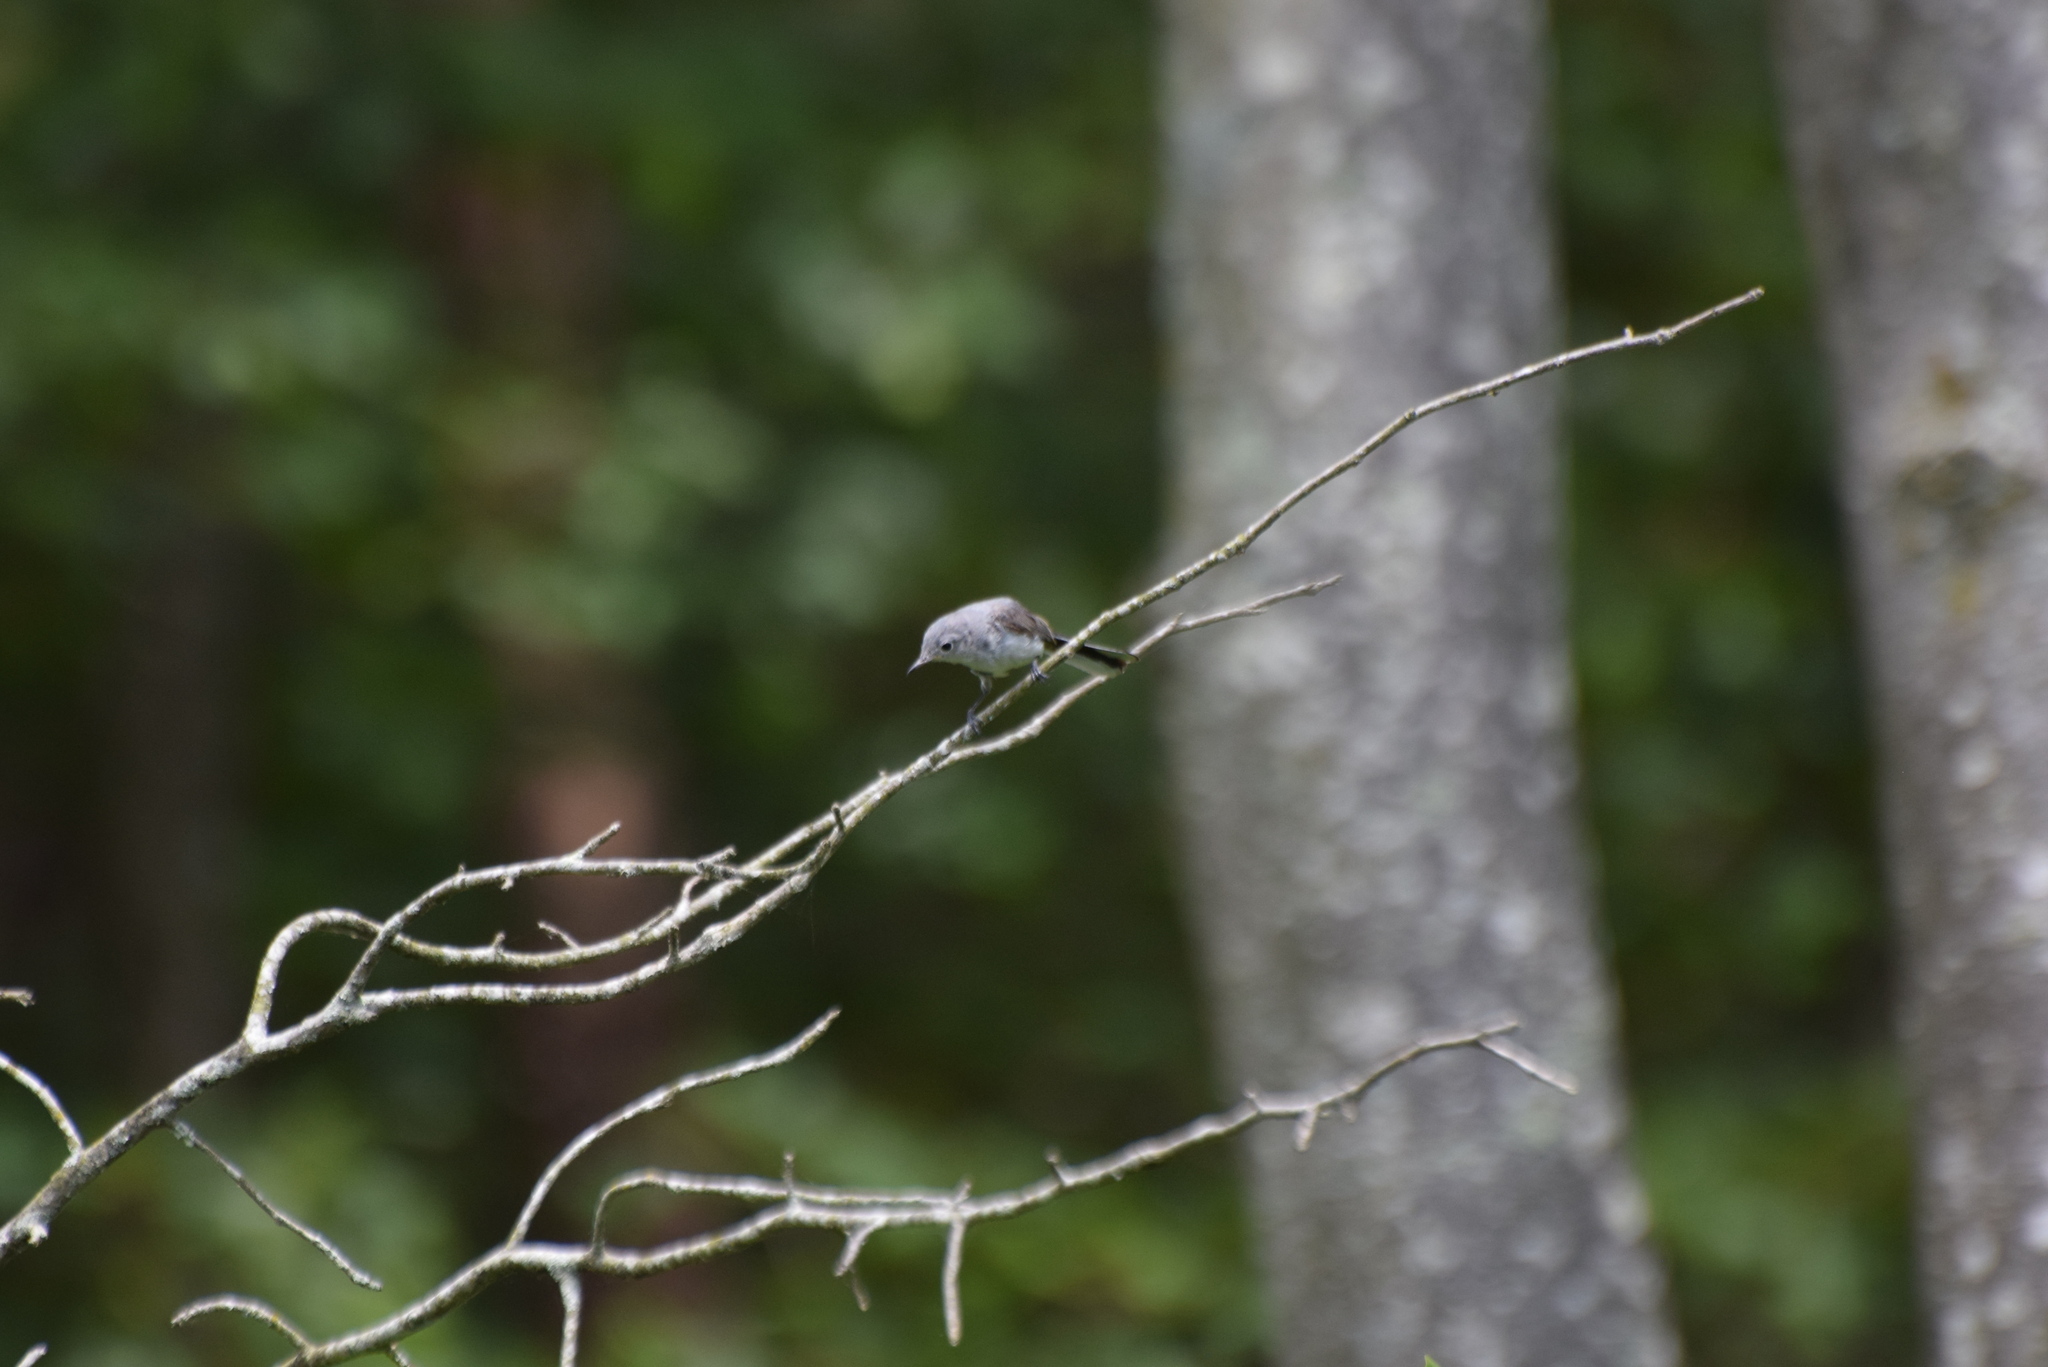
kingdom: Animalia
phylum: Chordata
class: Aves
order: Passeriformes
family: Polioptilidae
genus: Polioptila
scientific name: Polioptila caerulea
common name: Blue-gray gnatcatcher
